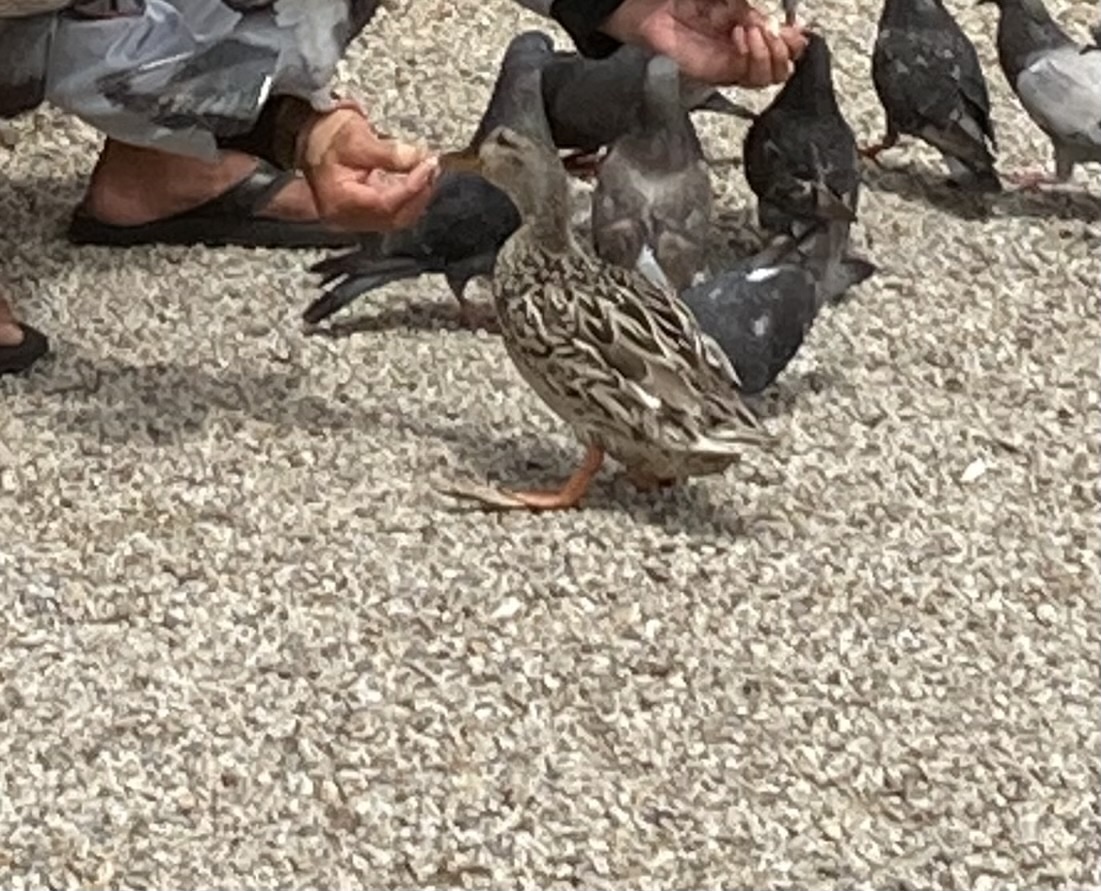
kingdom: Animalia
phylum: Chordata
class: Aves
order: Anseriformes
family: Anatidae
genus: Anas
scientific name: Anas platyrhynchos
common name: Mallard
